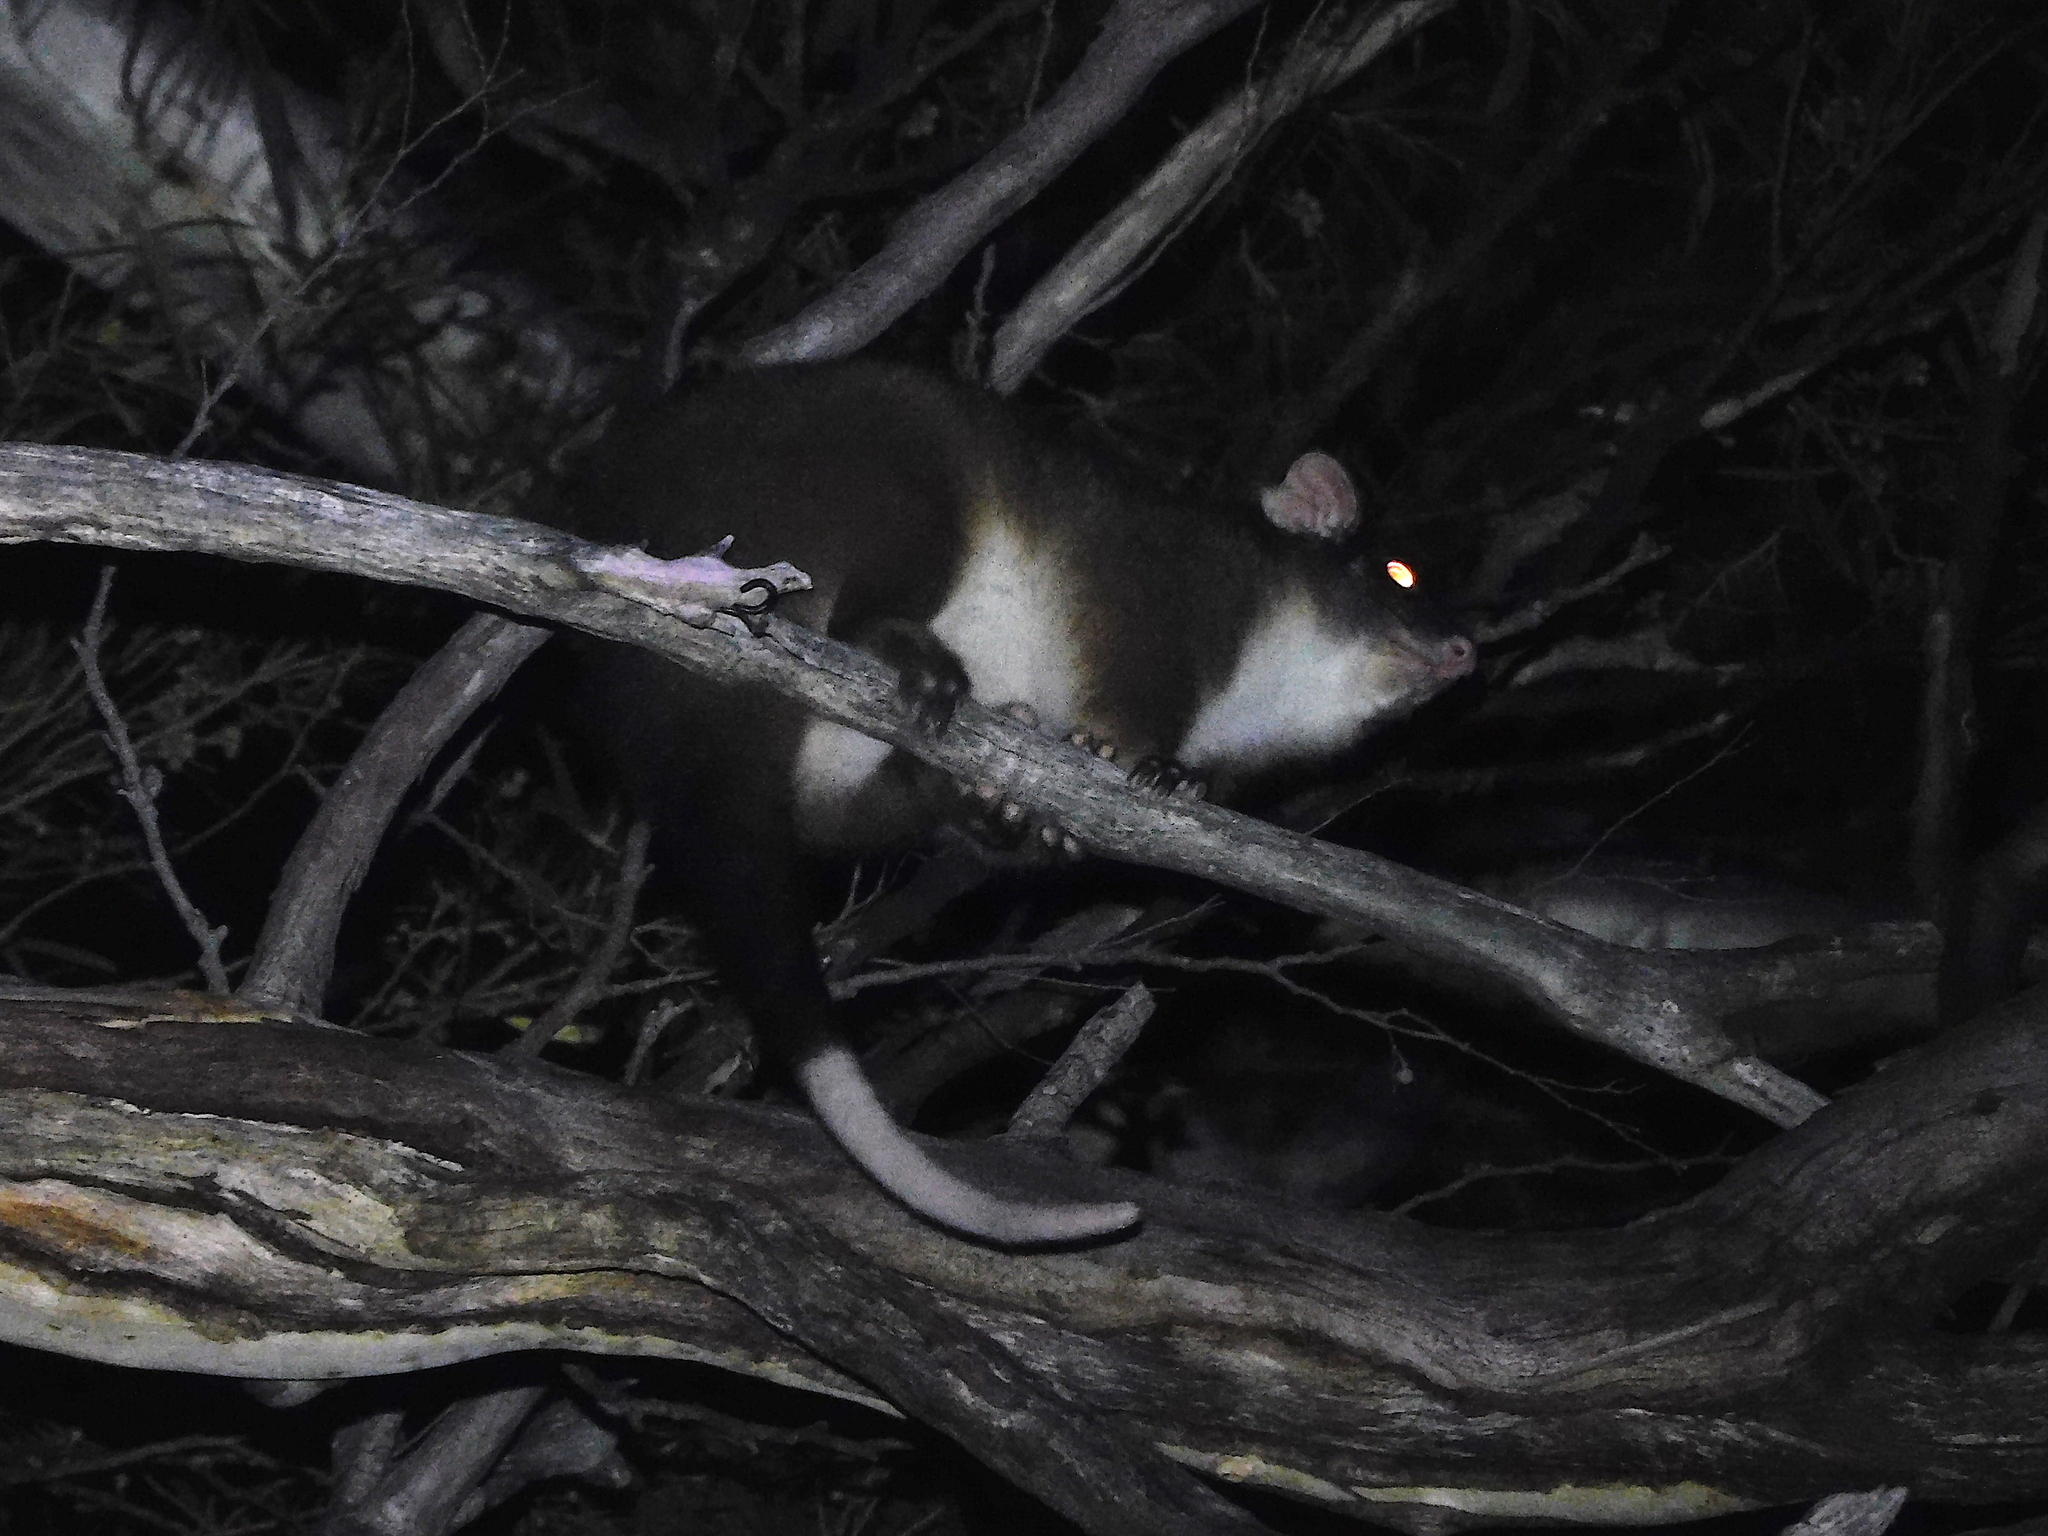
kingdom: Animalia
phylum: Chordata
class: Mammalia
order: Diprotodontia
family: Pseudocheiridae
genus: Pseudocheirus
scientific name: Pseudocheirus peregrinus
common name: Common ringtail possum
